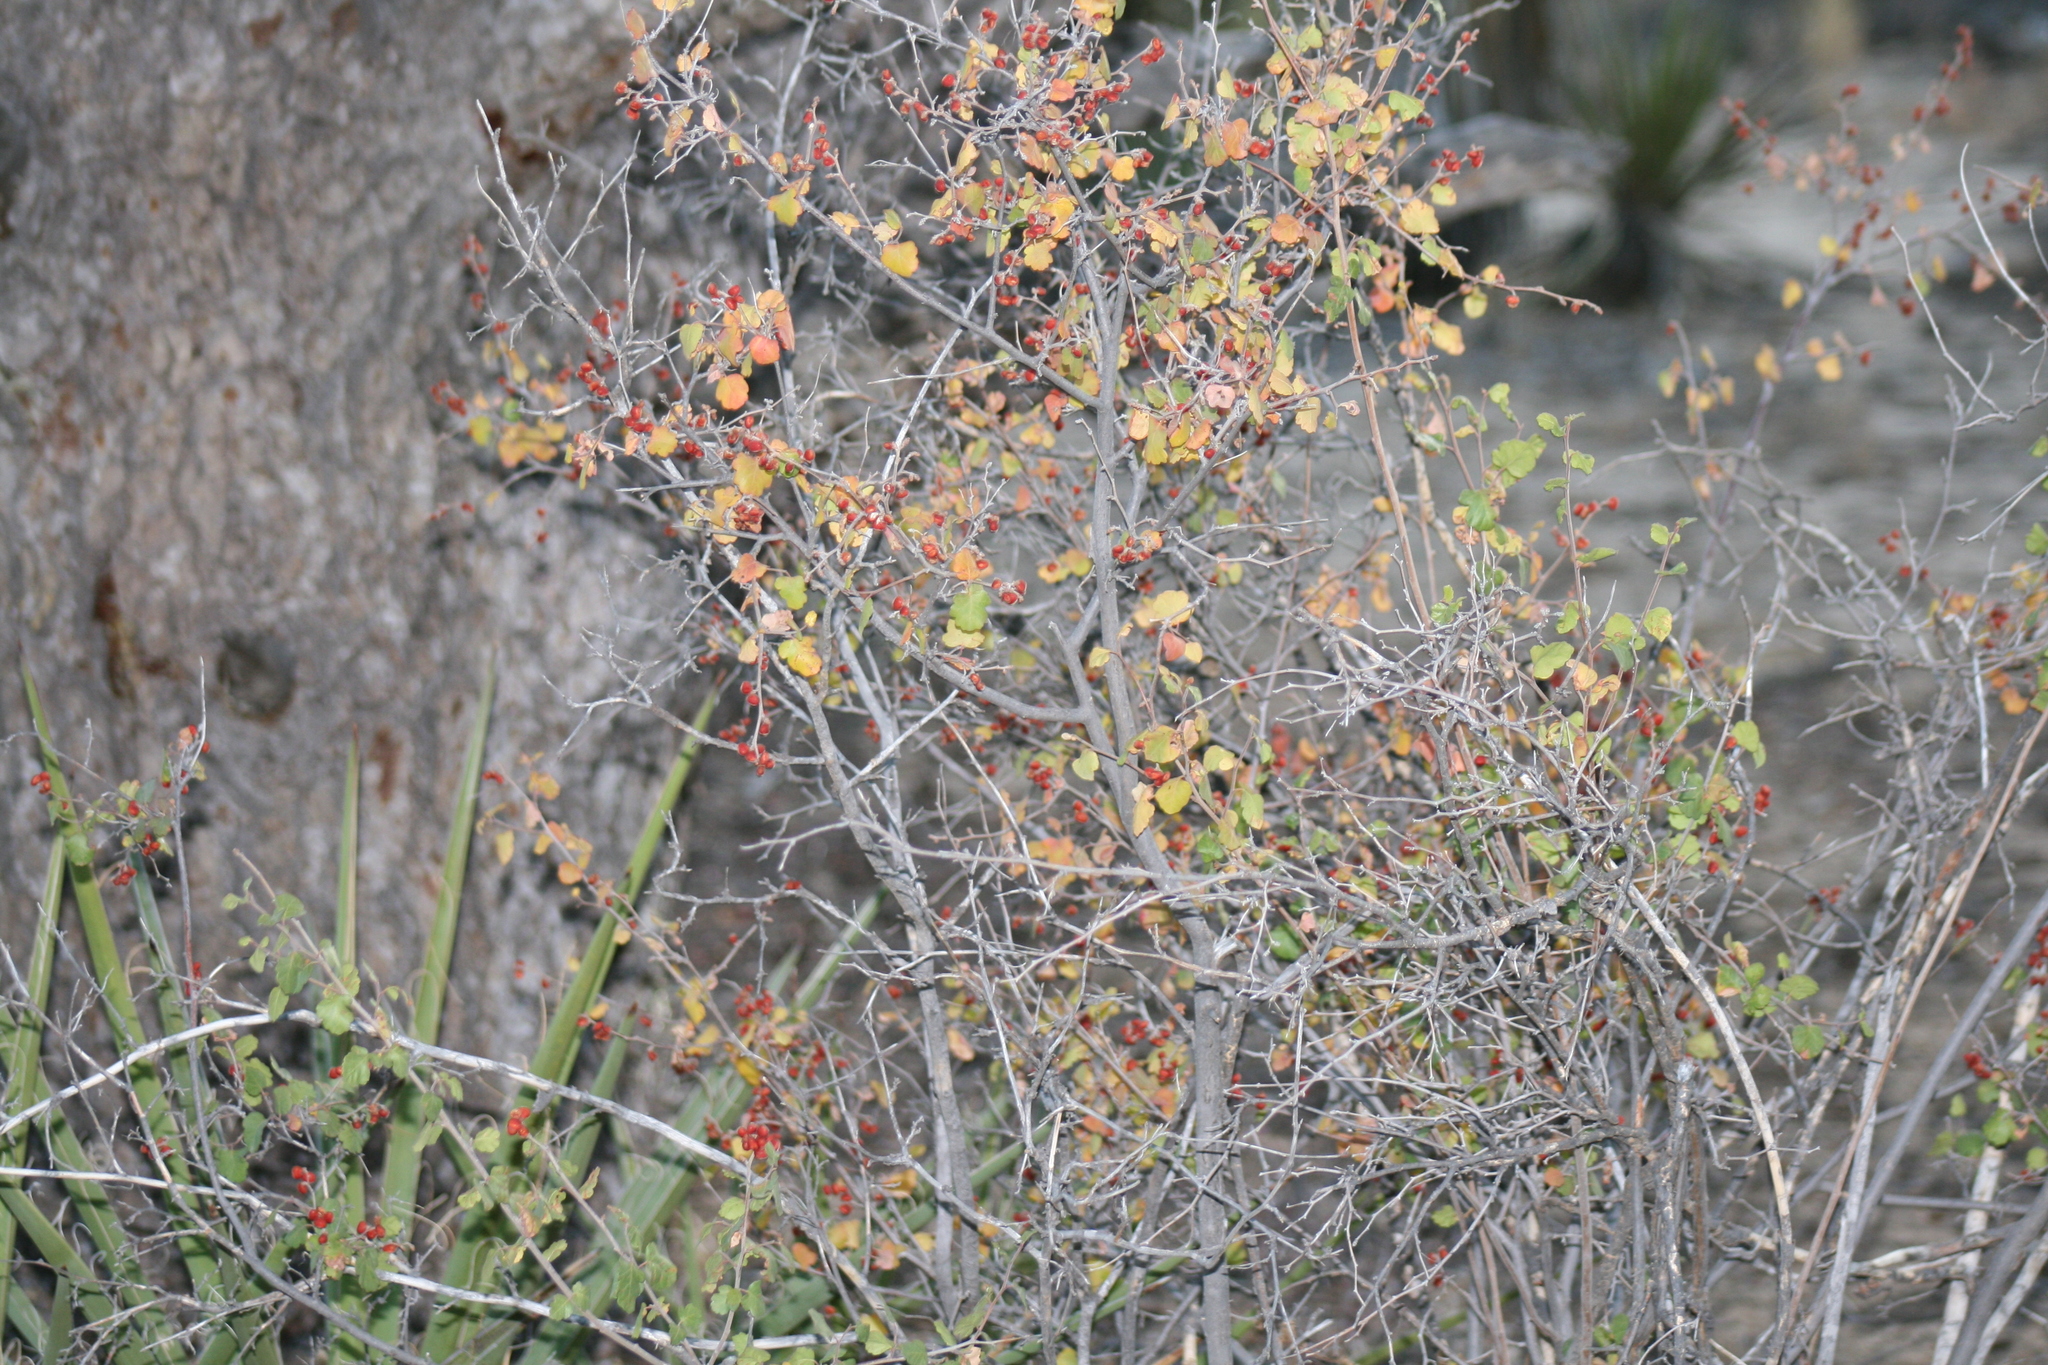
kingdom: Plantae
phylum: Tracheophyta
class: Magnoliopsida
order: Sapindales
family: Anacardiaceae
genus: Rhus
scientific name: Rhus trilobata
